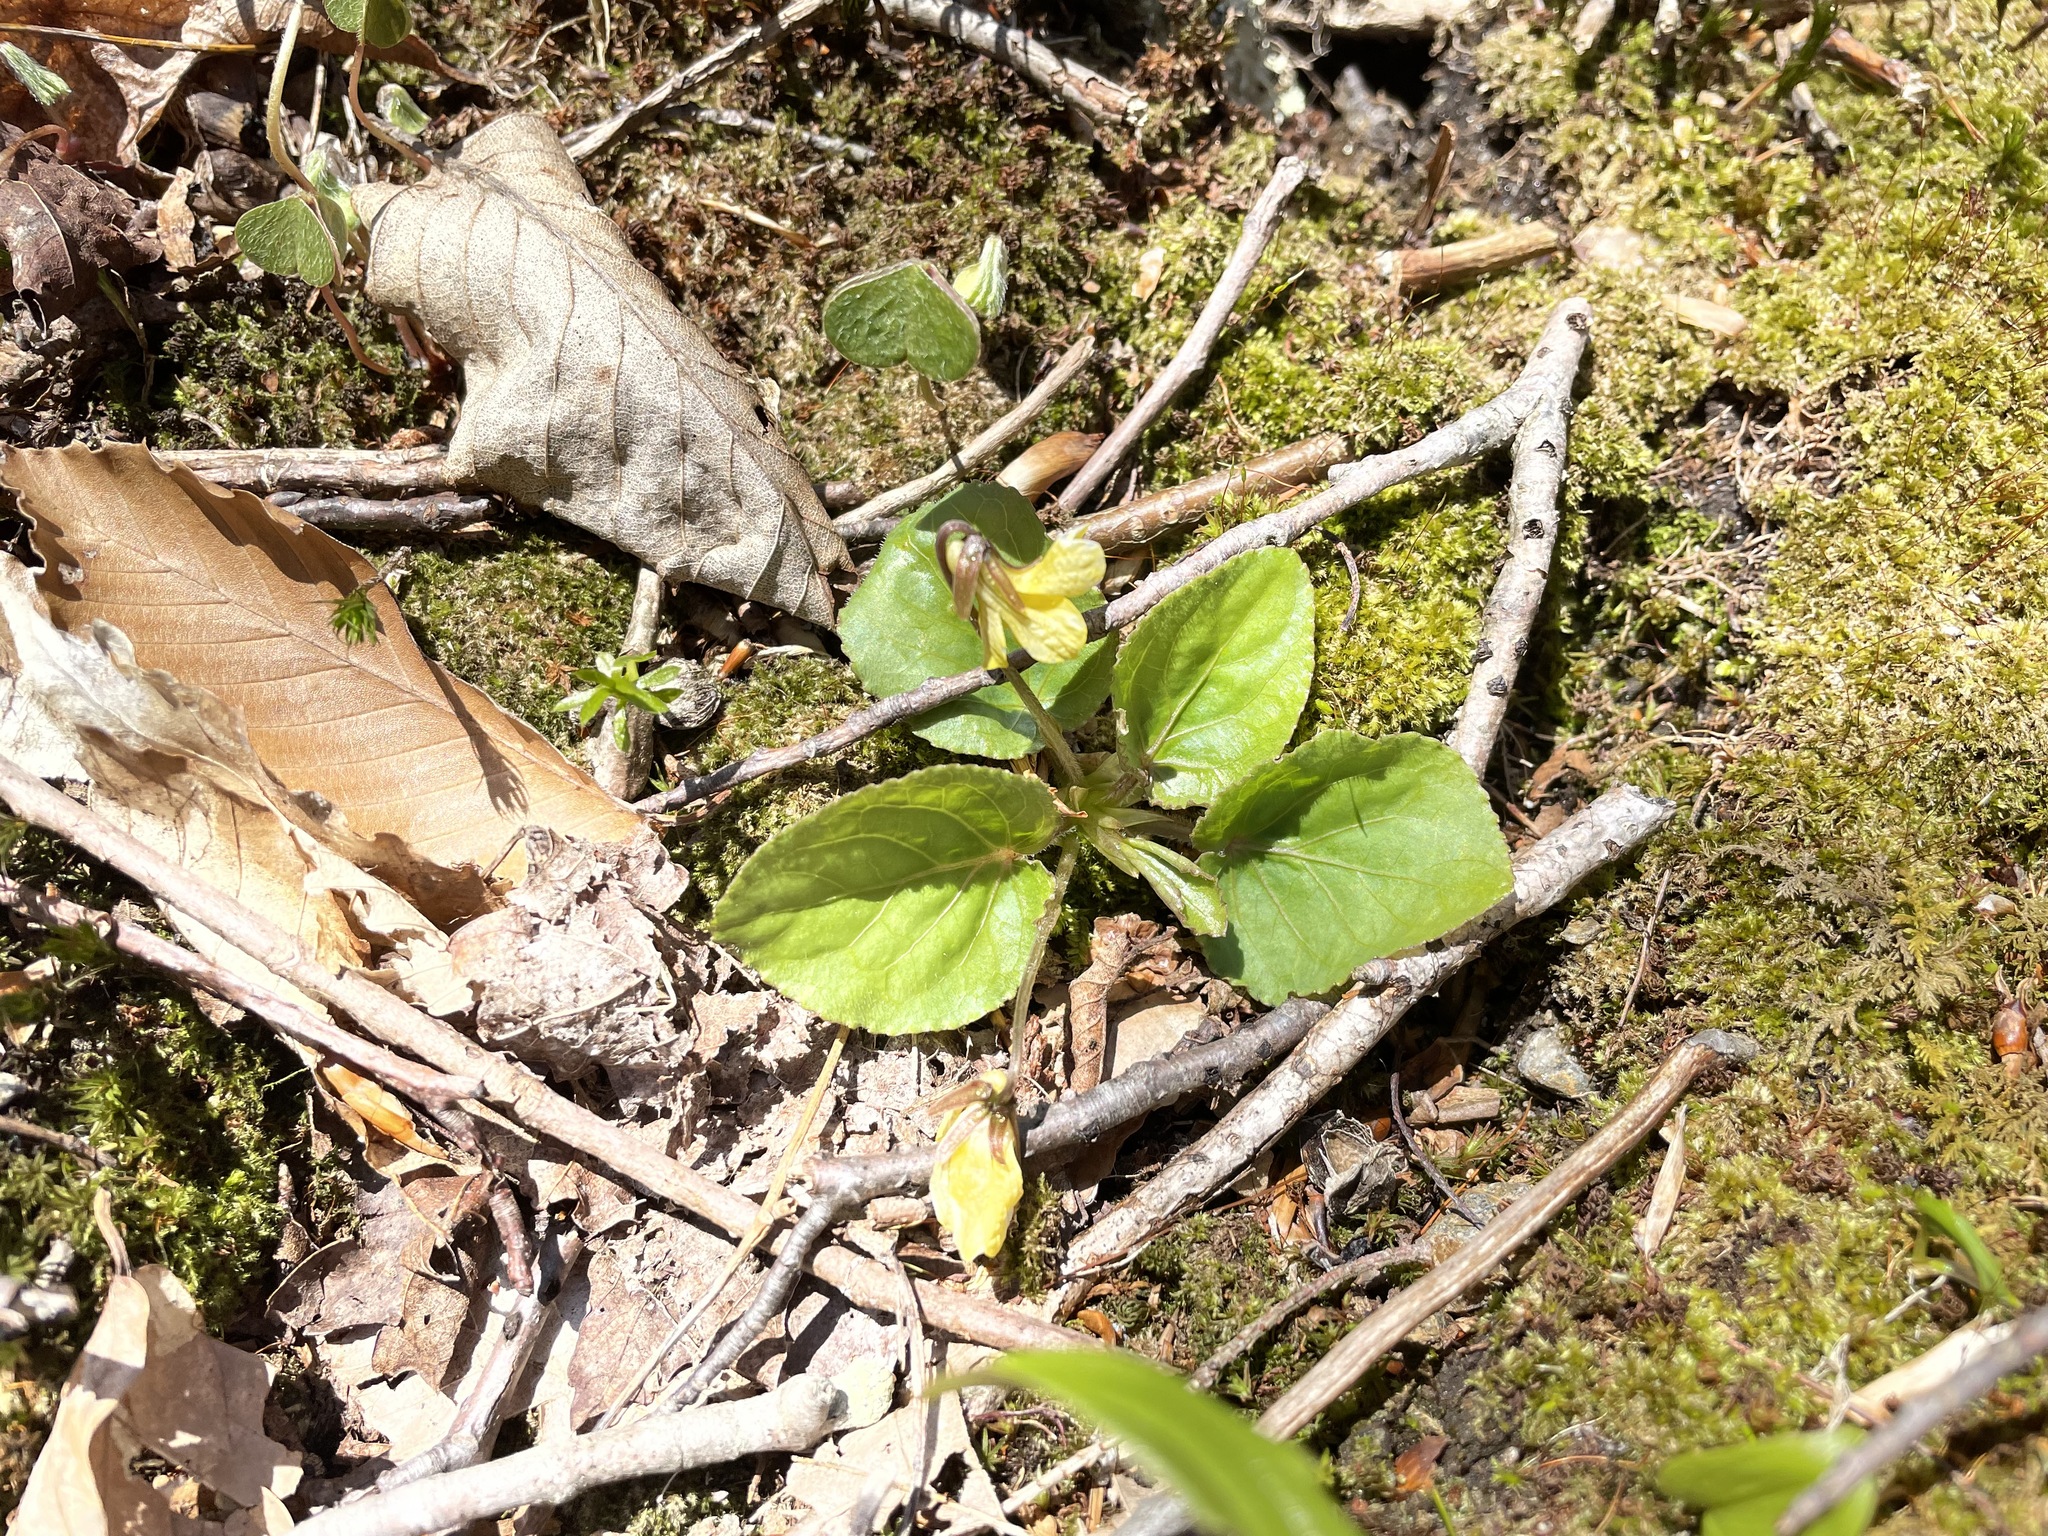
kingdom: Plantae
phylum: Tracheophyta
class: Magnoliopsida
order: Malpighiales
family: Violaceae
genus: Viola
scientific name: Viola rotundifolia
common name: Early yellow violet
